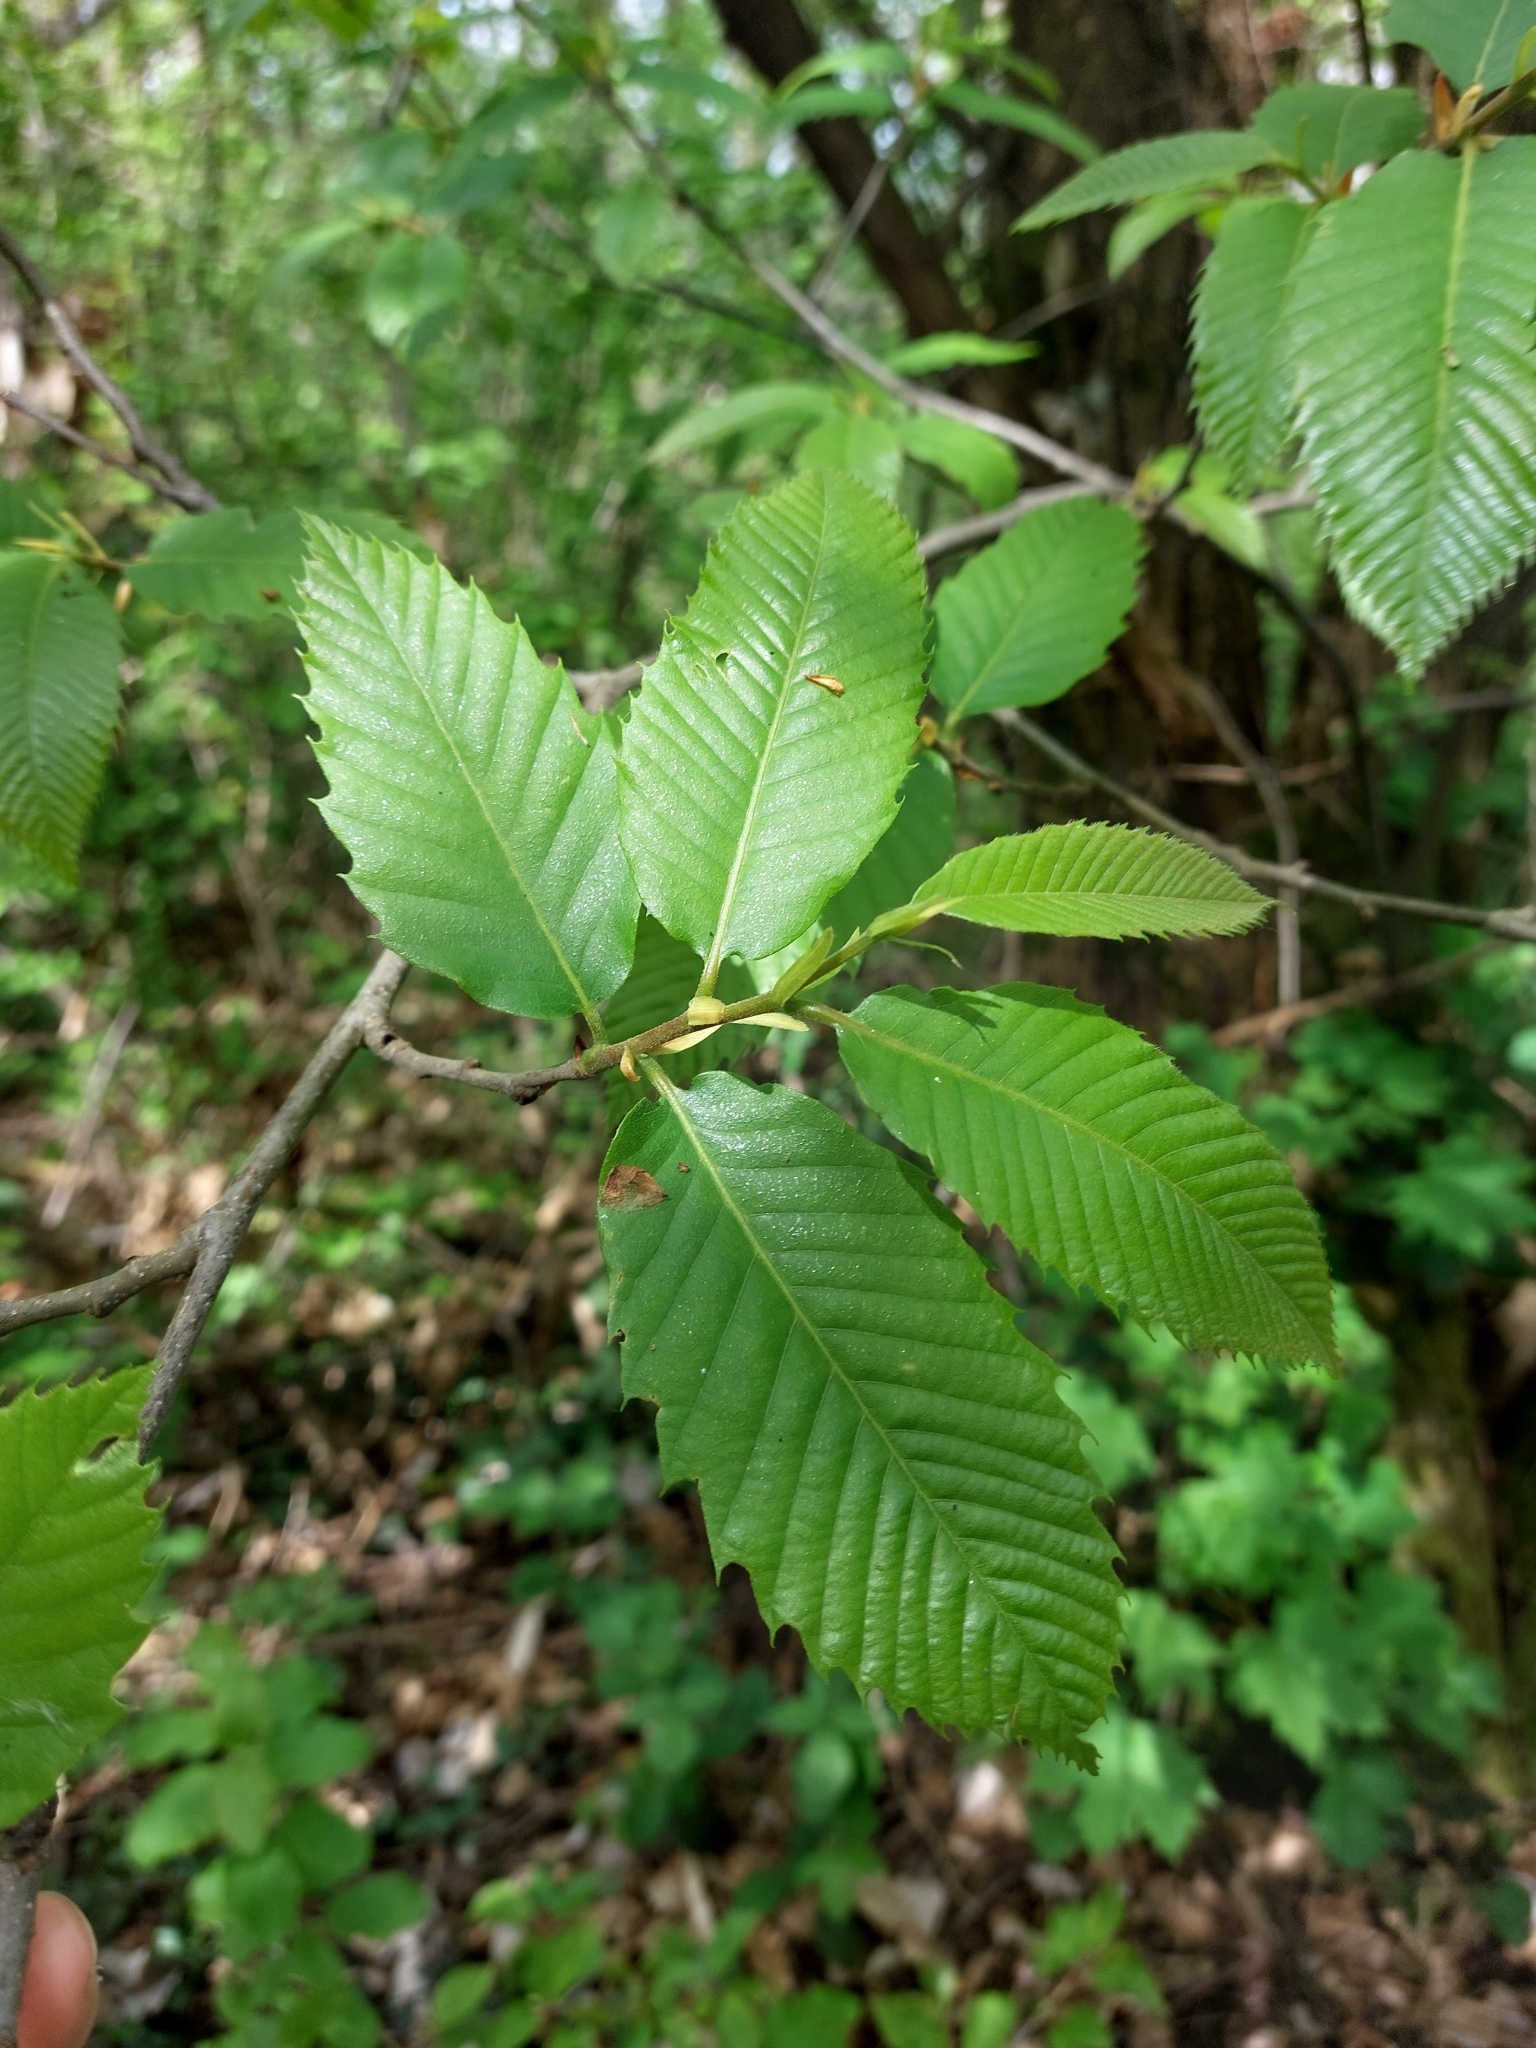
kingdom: Plantae
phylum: Tracheophyta
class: Magnoliopsida
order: Fagales
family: Fagaceae
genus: Castanea
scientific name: Castanea sativa
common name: Sweet chestnut
